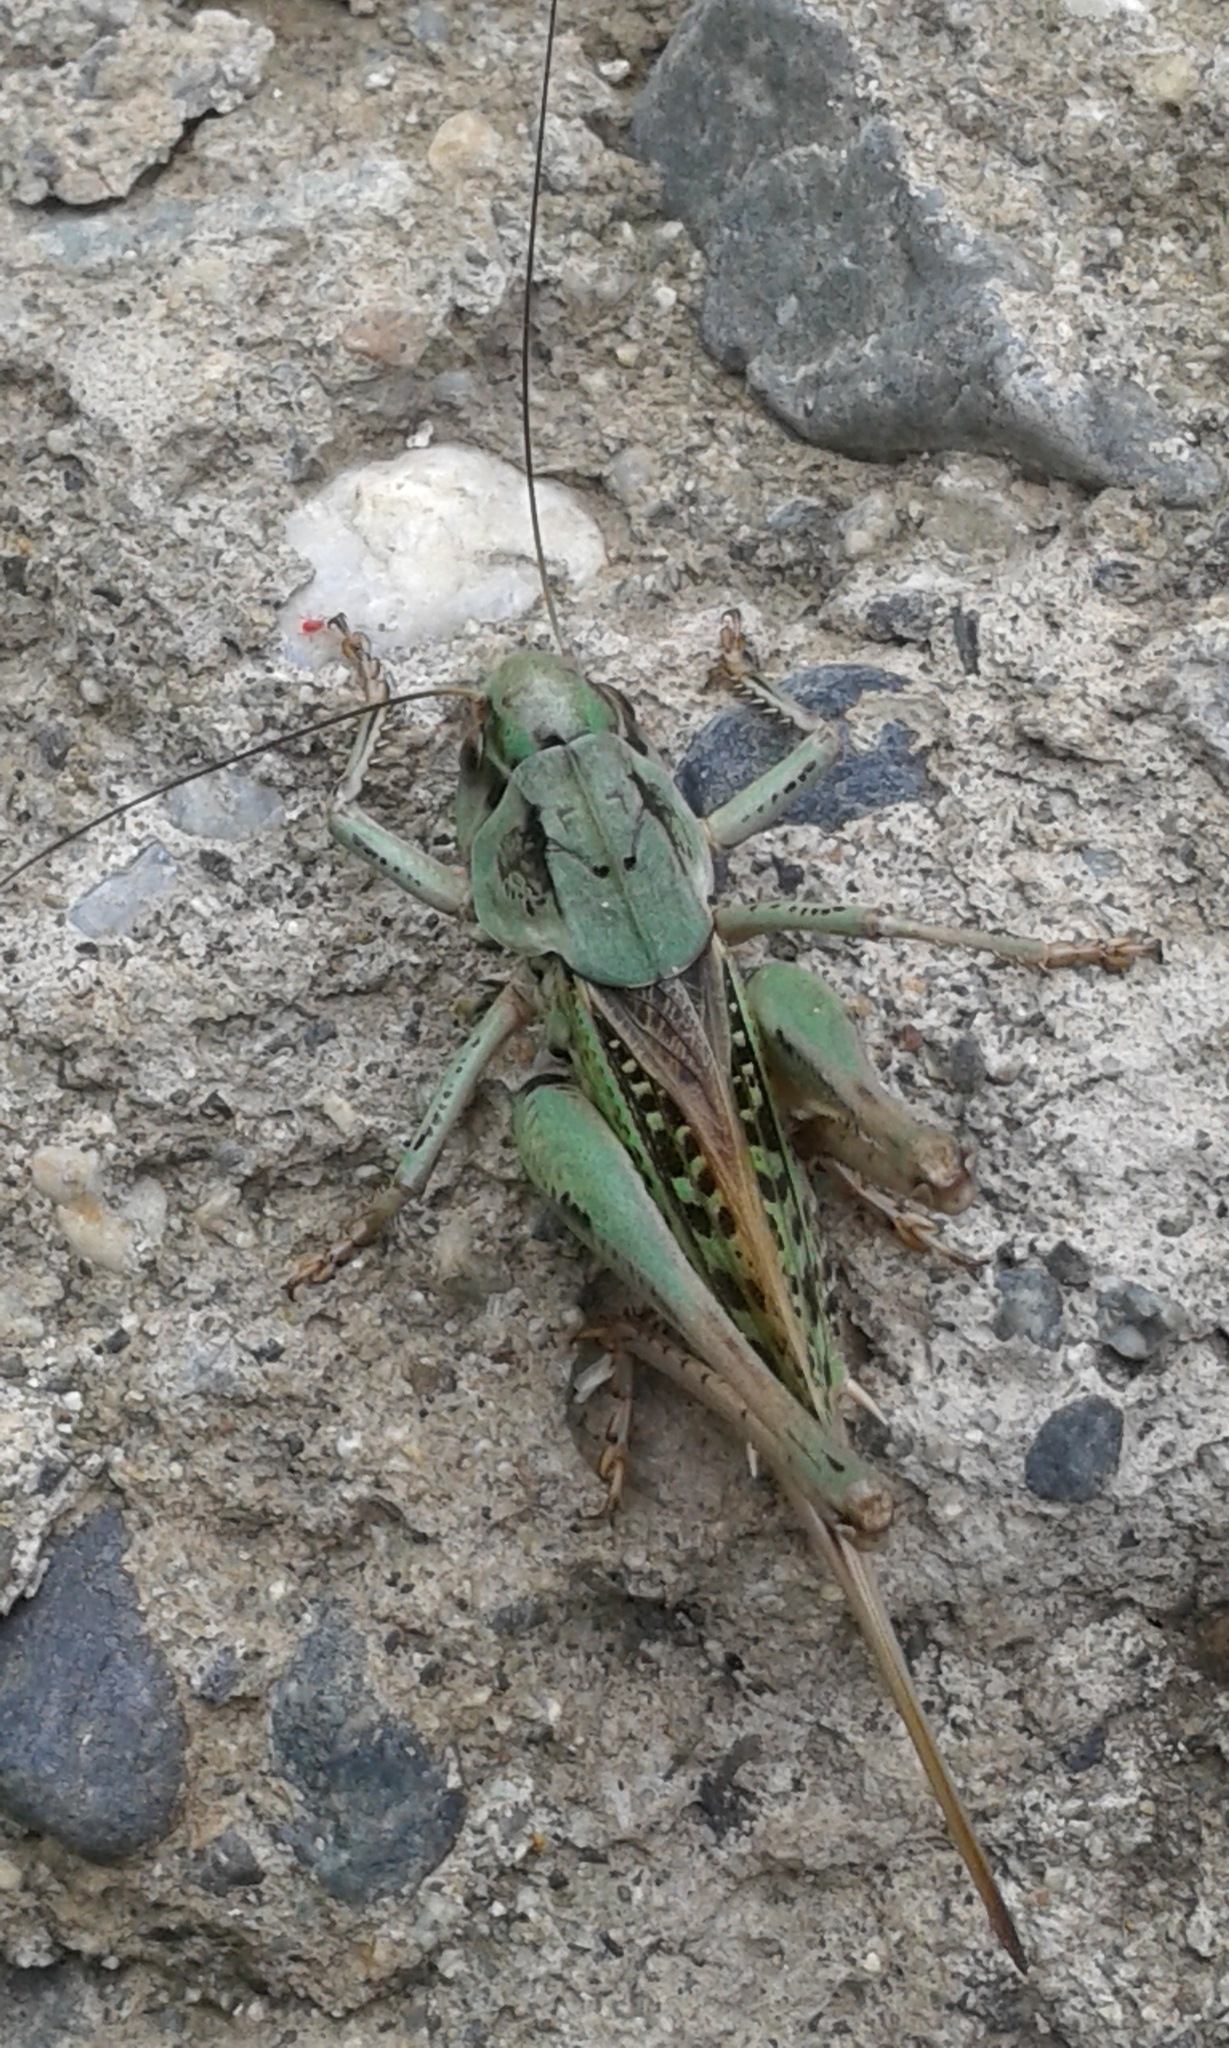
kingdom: Animalia
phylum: Arthropoda
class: Insecta
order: Orthoptera
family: Tettigoniidae
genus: Decticus
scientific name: Decticus verrucivorus
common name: Wart-biter
